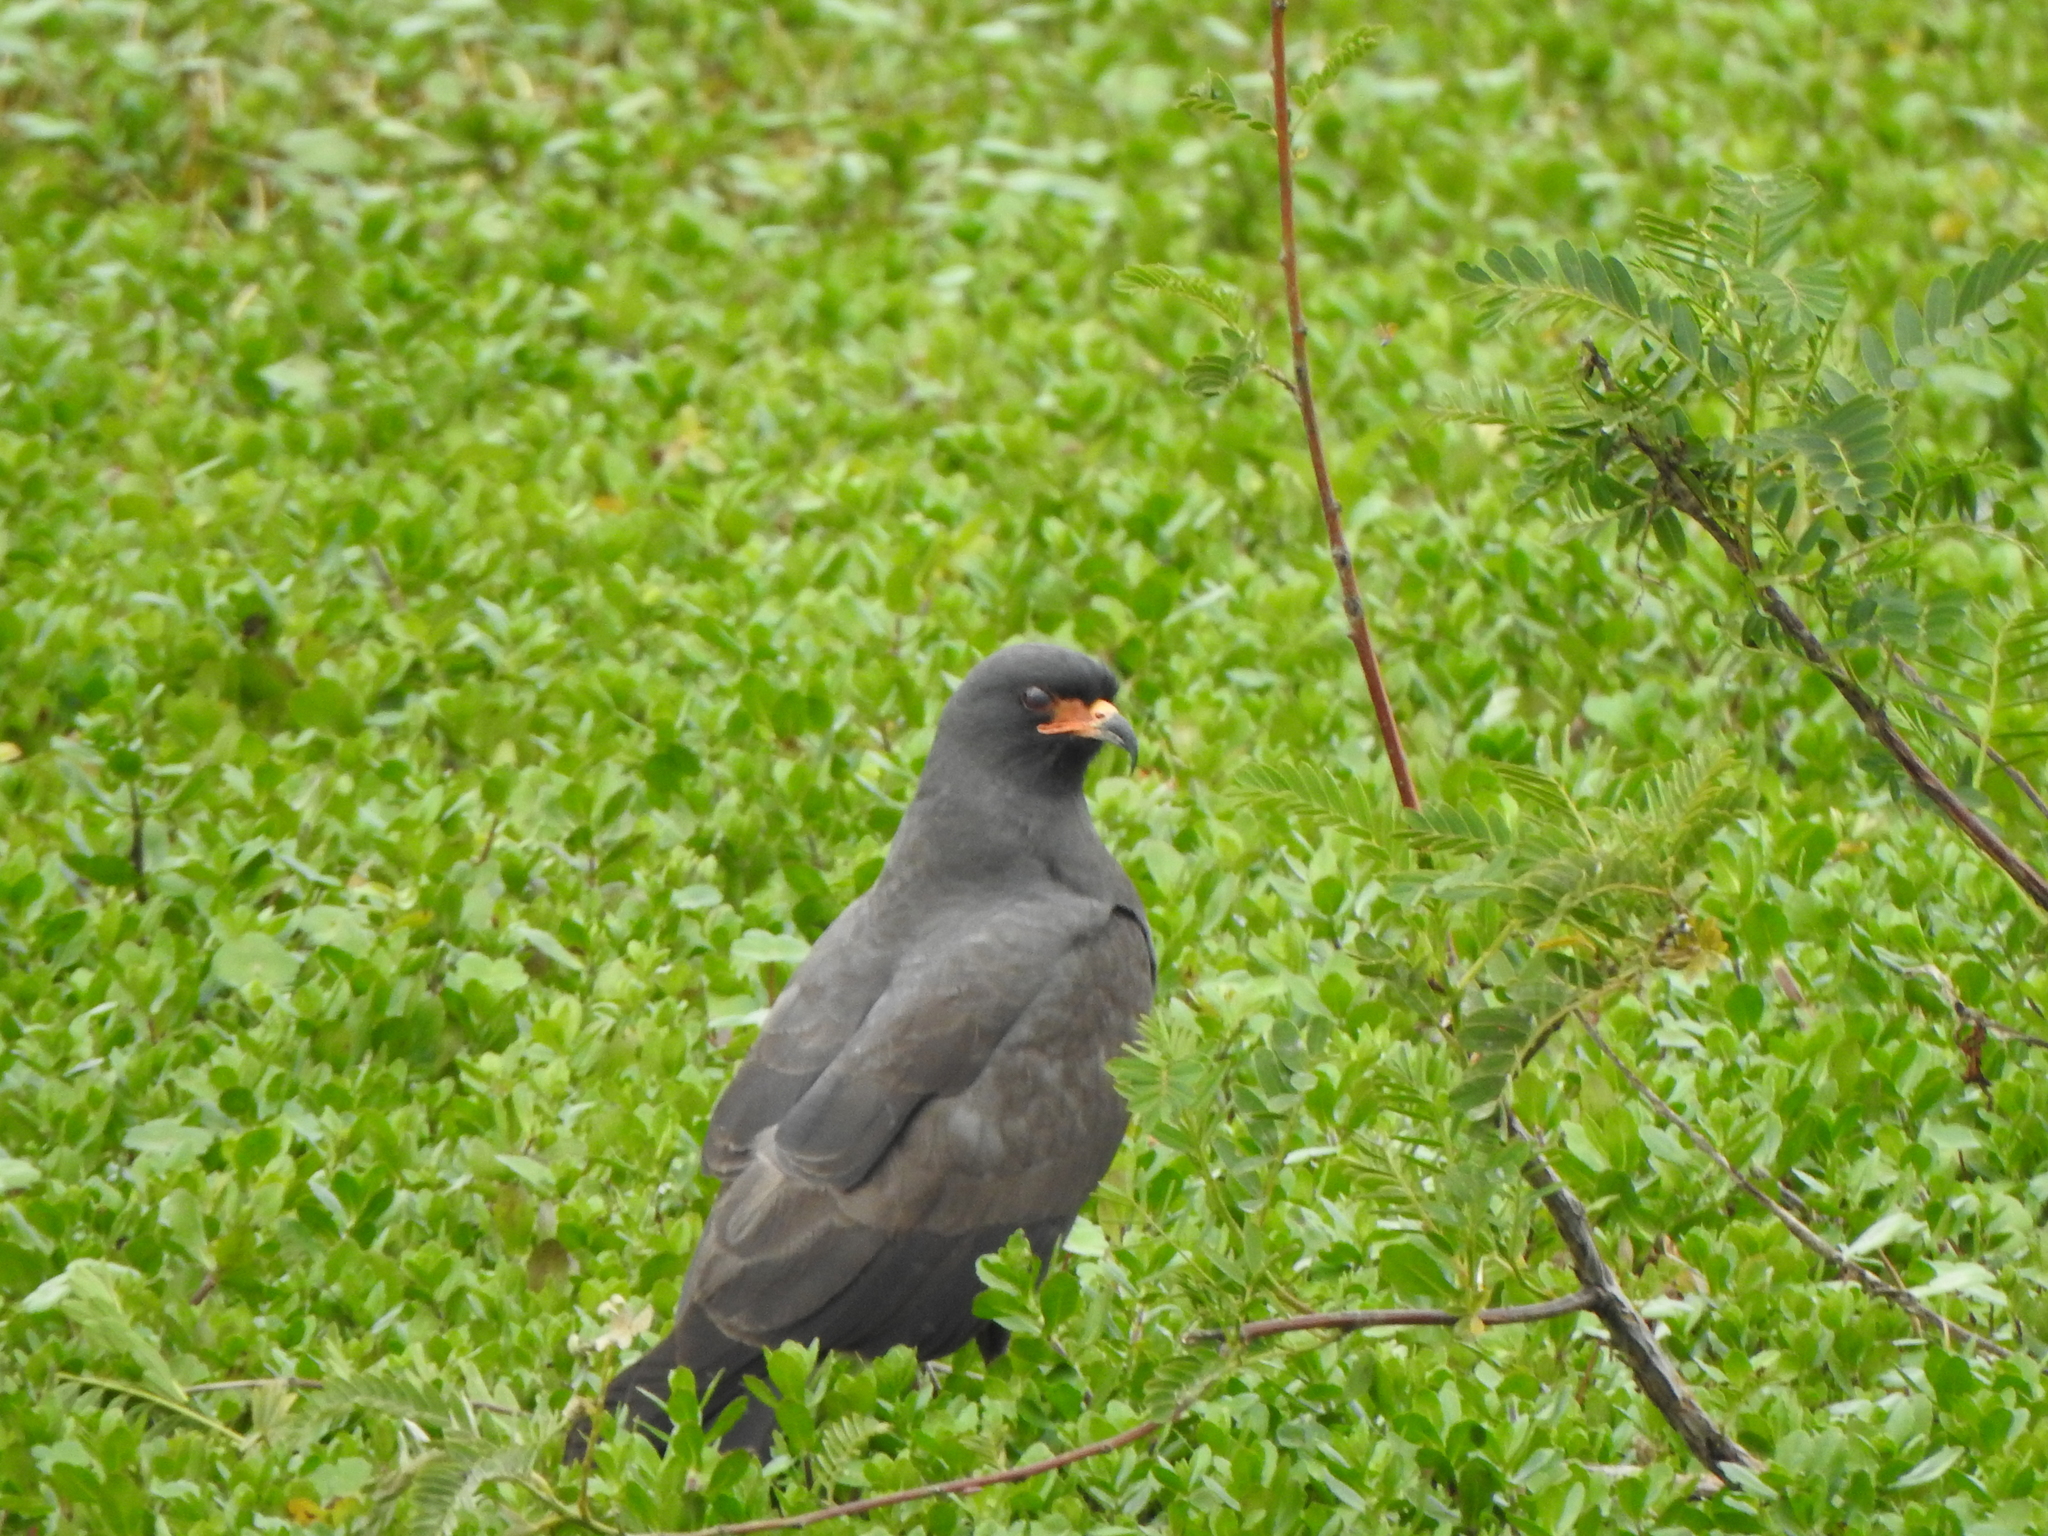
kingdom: Animalia
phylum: Chordata
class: Aves
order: Accipitriformes
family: Accipitridae
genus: Rostrhamus
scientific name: Rostrhamus sociabilis
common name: Snail kite
